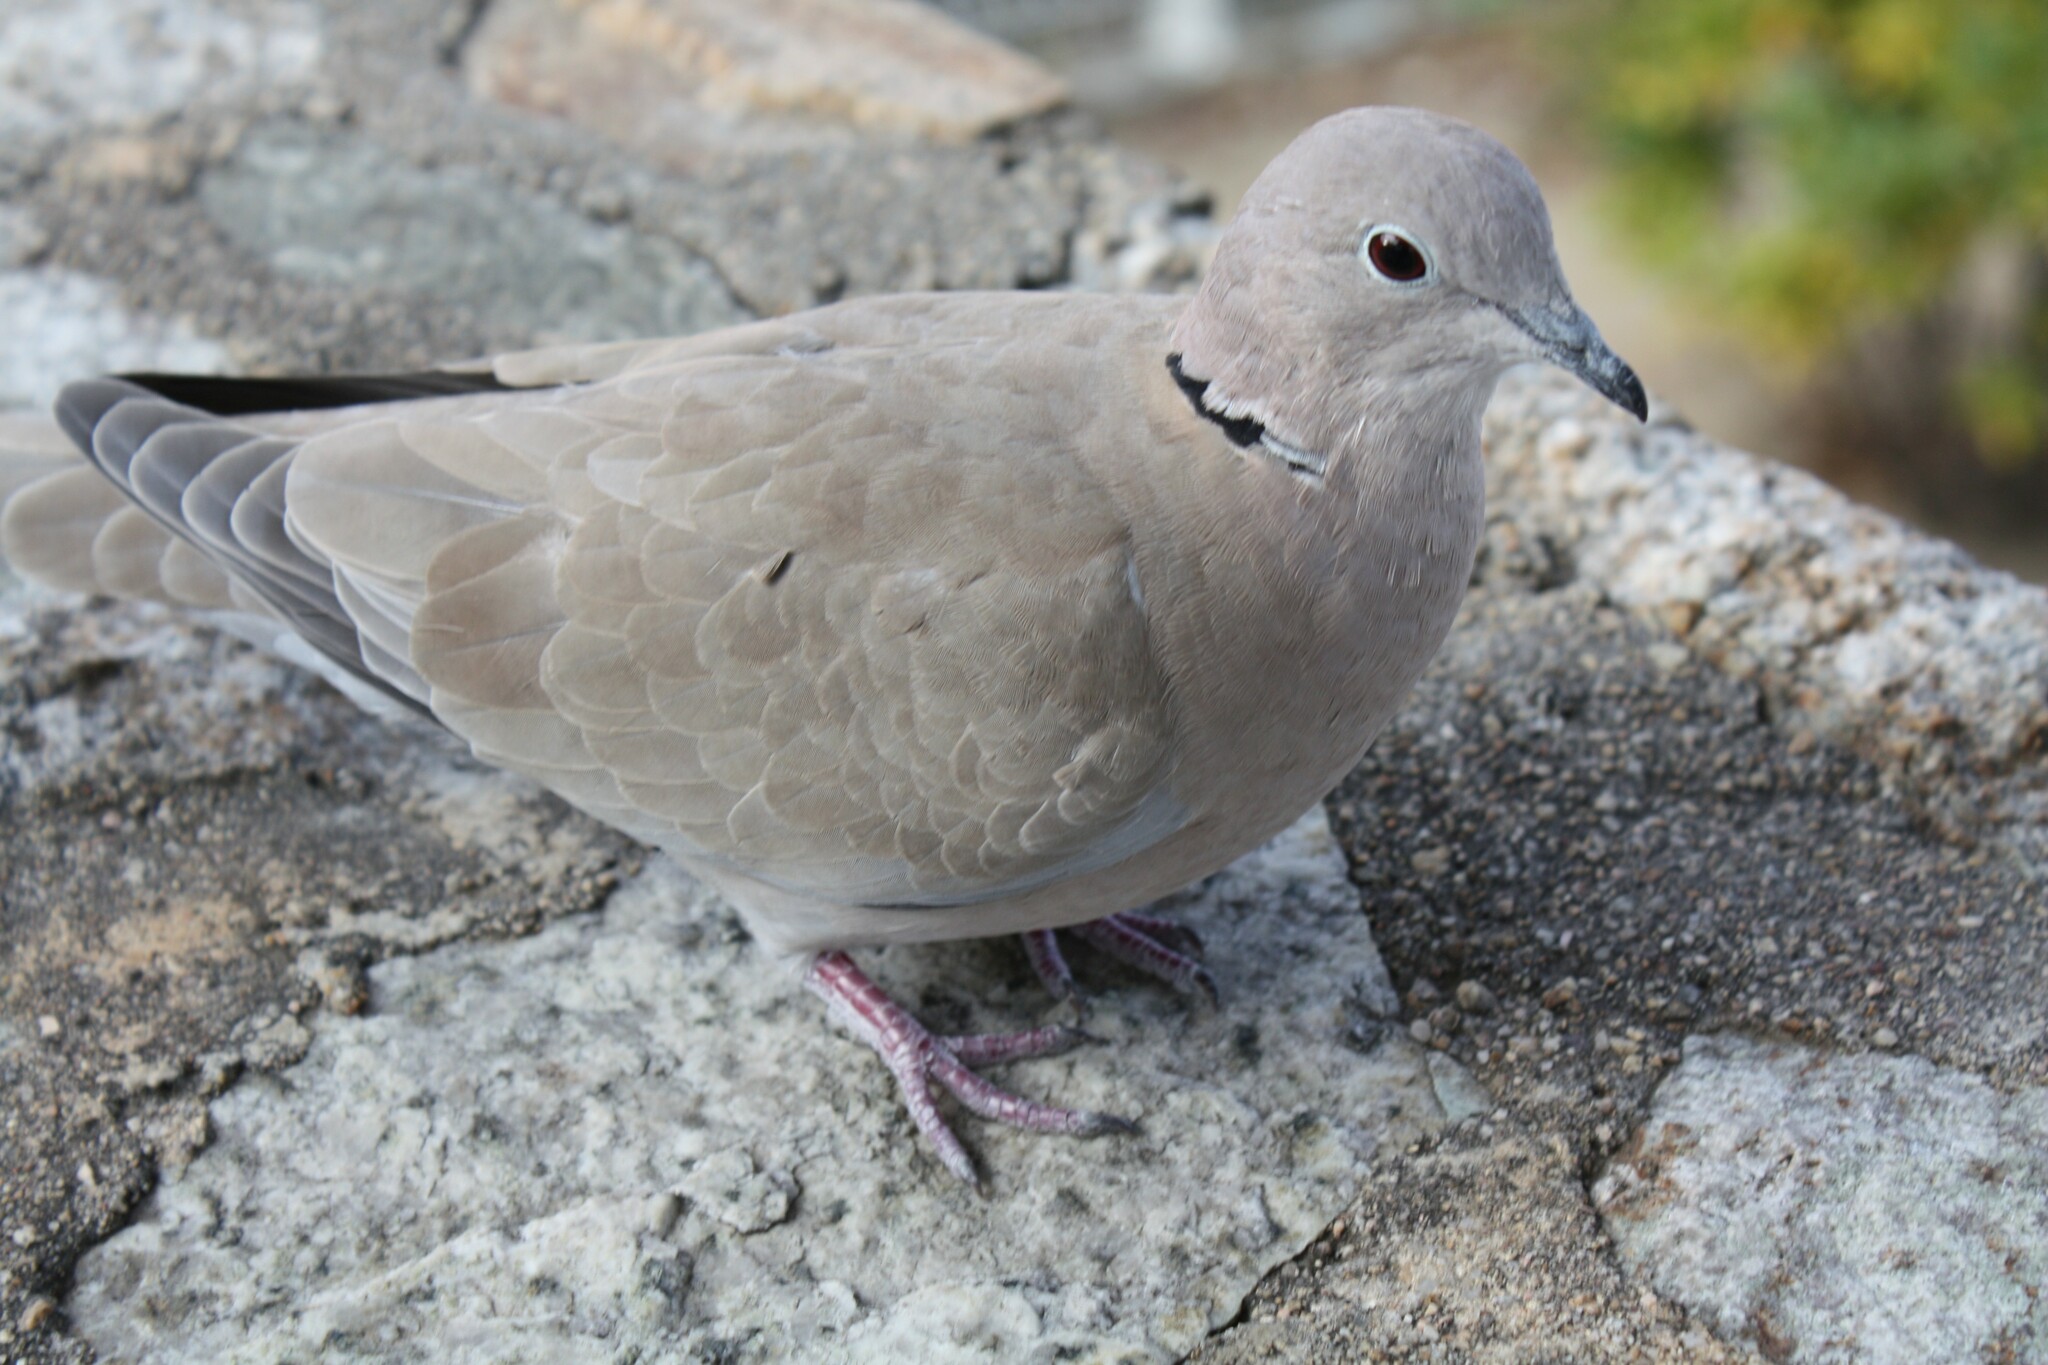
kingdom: Animalia
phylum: Chordata
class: Aves
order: Columbiformes
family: Columbidae
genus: Streptopelia
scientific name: Streptopelia decaocto
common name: Eurasian collared dove
